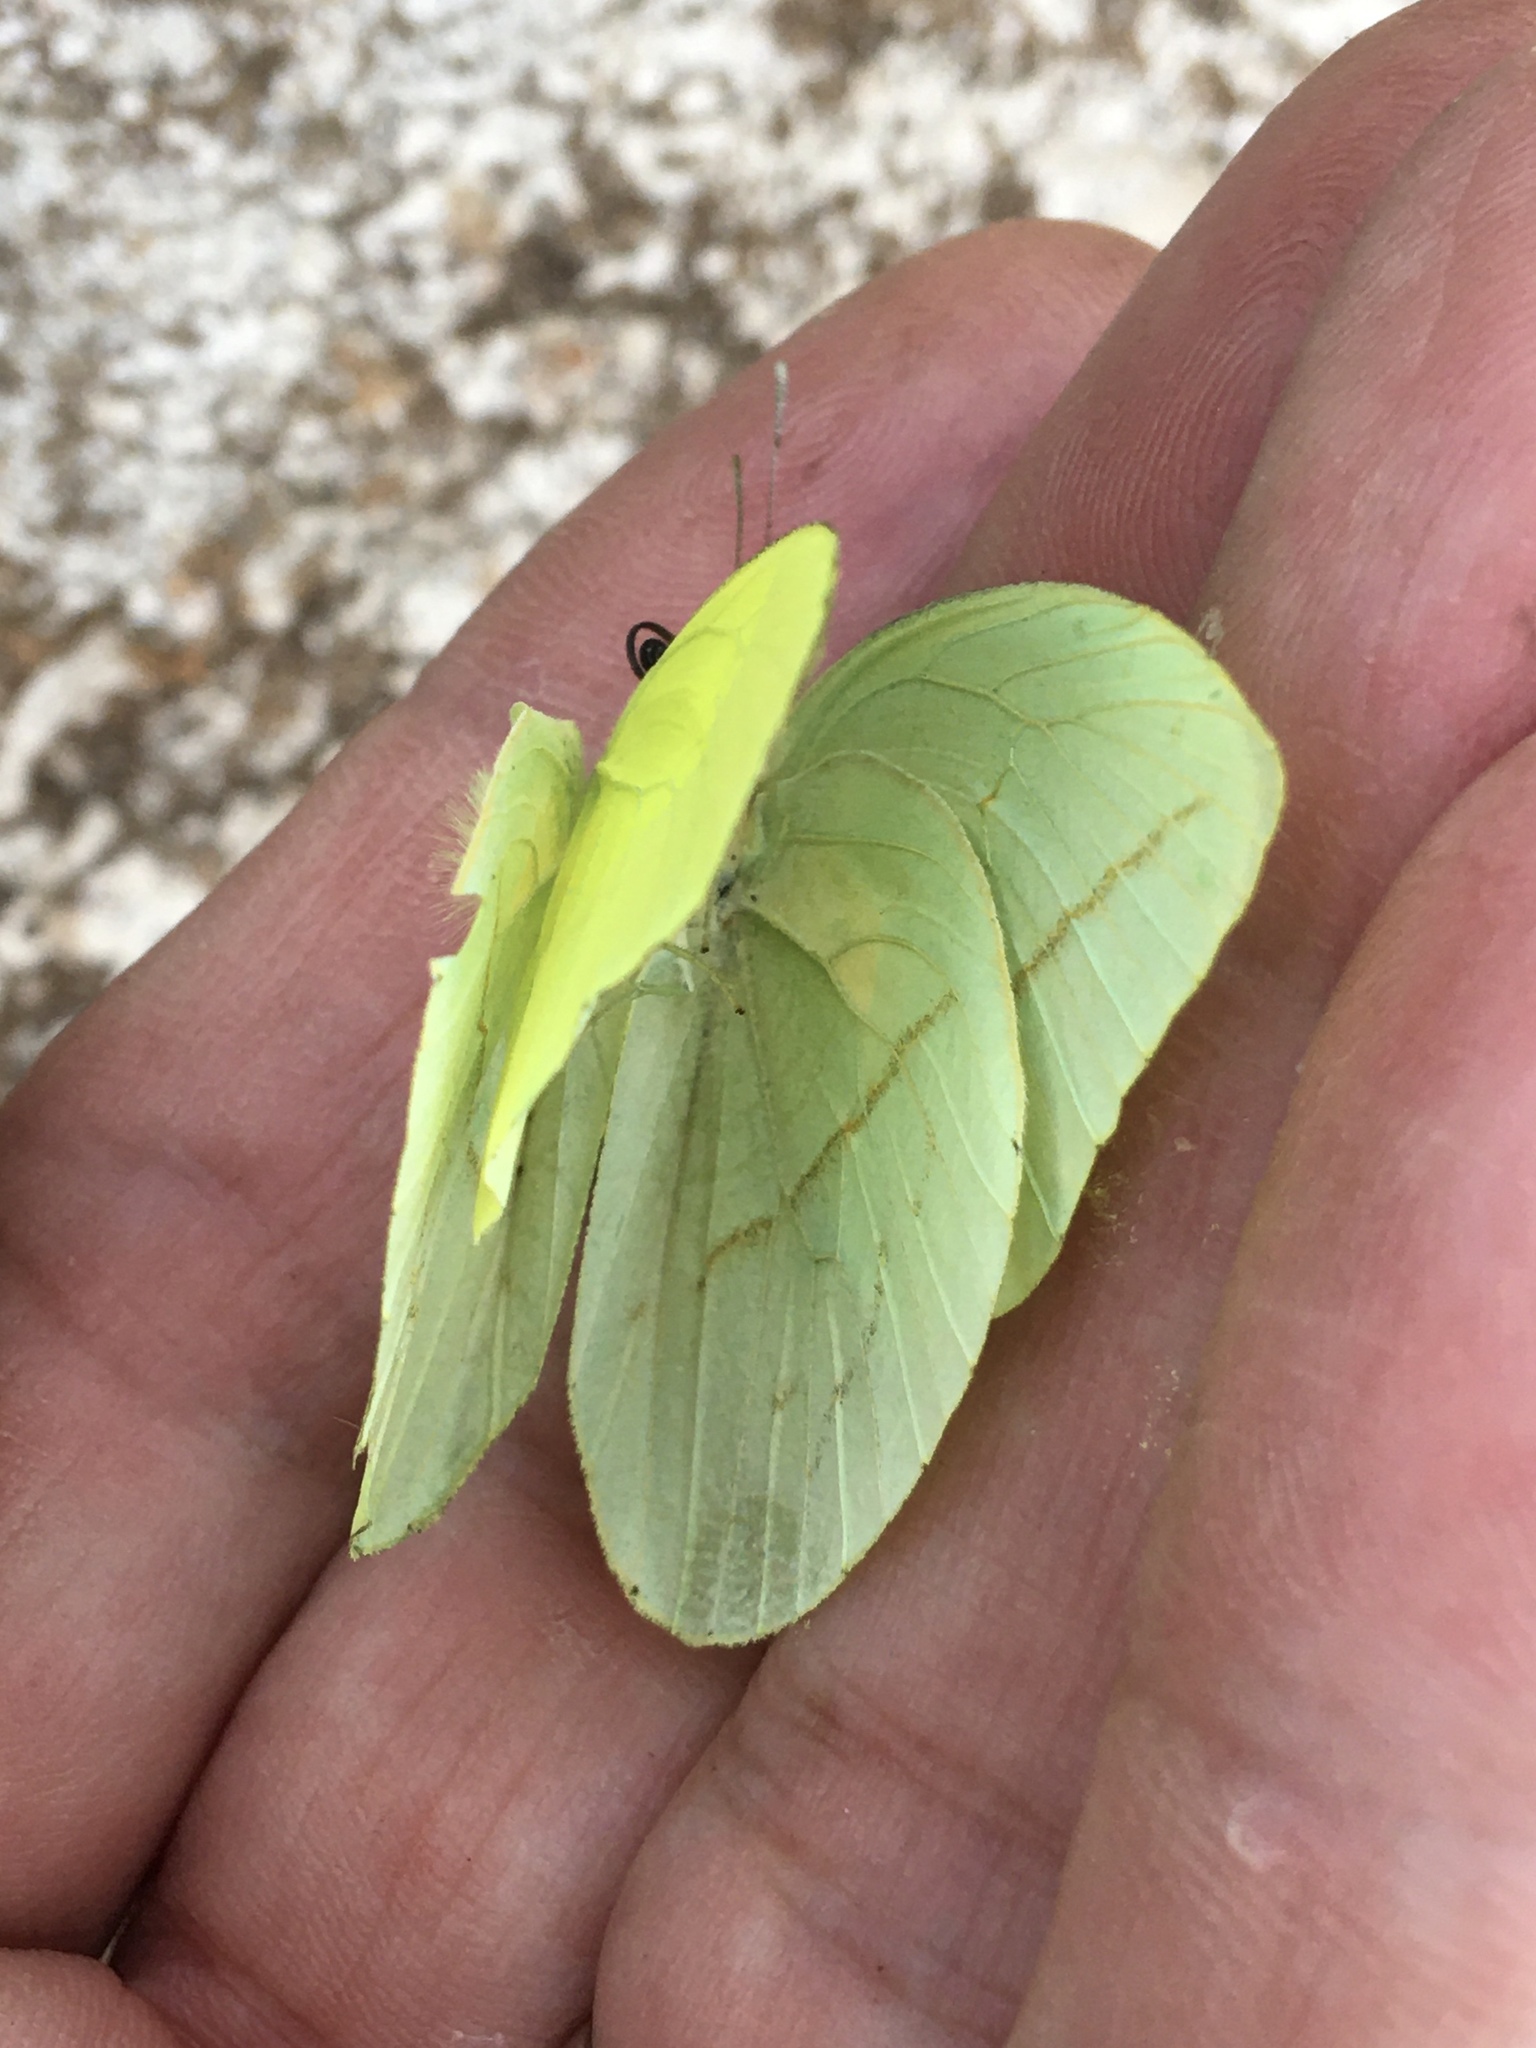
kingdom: Animalia
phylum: Arthropoda
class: Insecta
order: Lepidoptera
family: Pieridae
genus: Rhabdodryas
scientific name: Rhabdodryas trite
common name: Straight-lined sulphur
